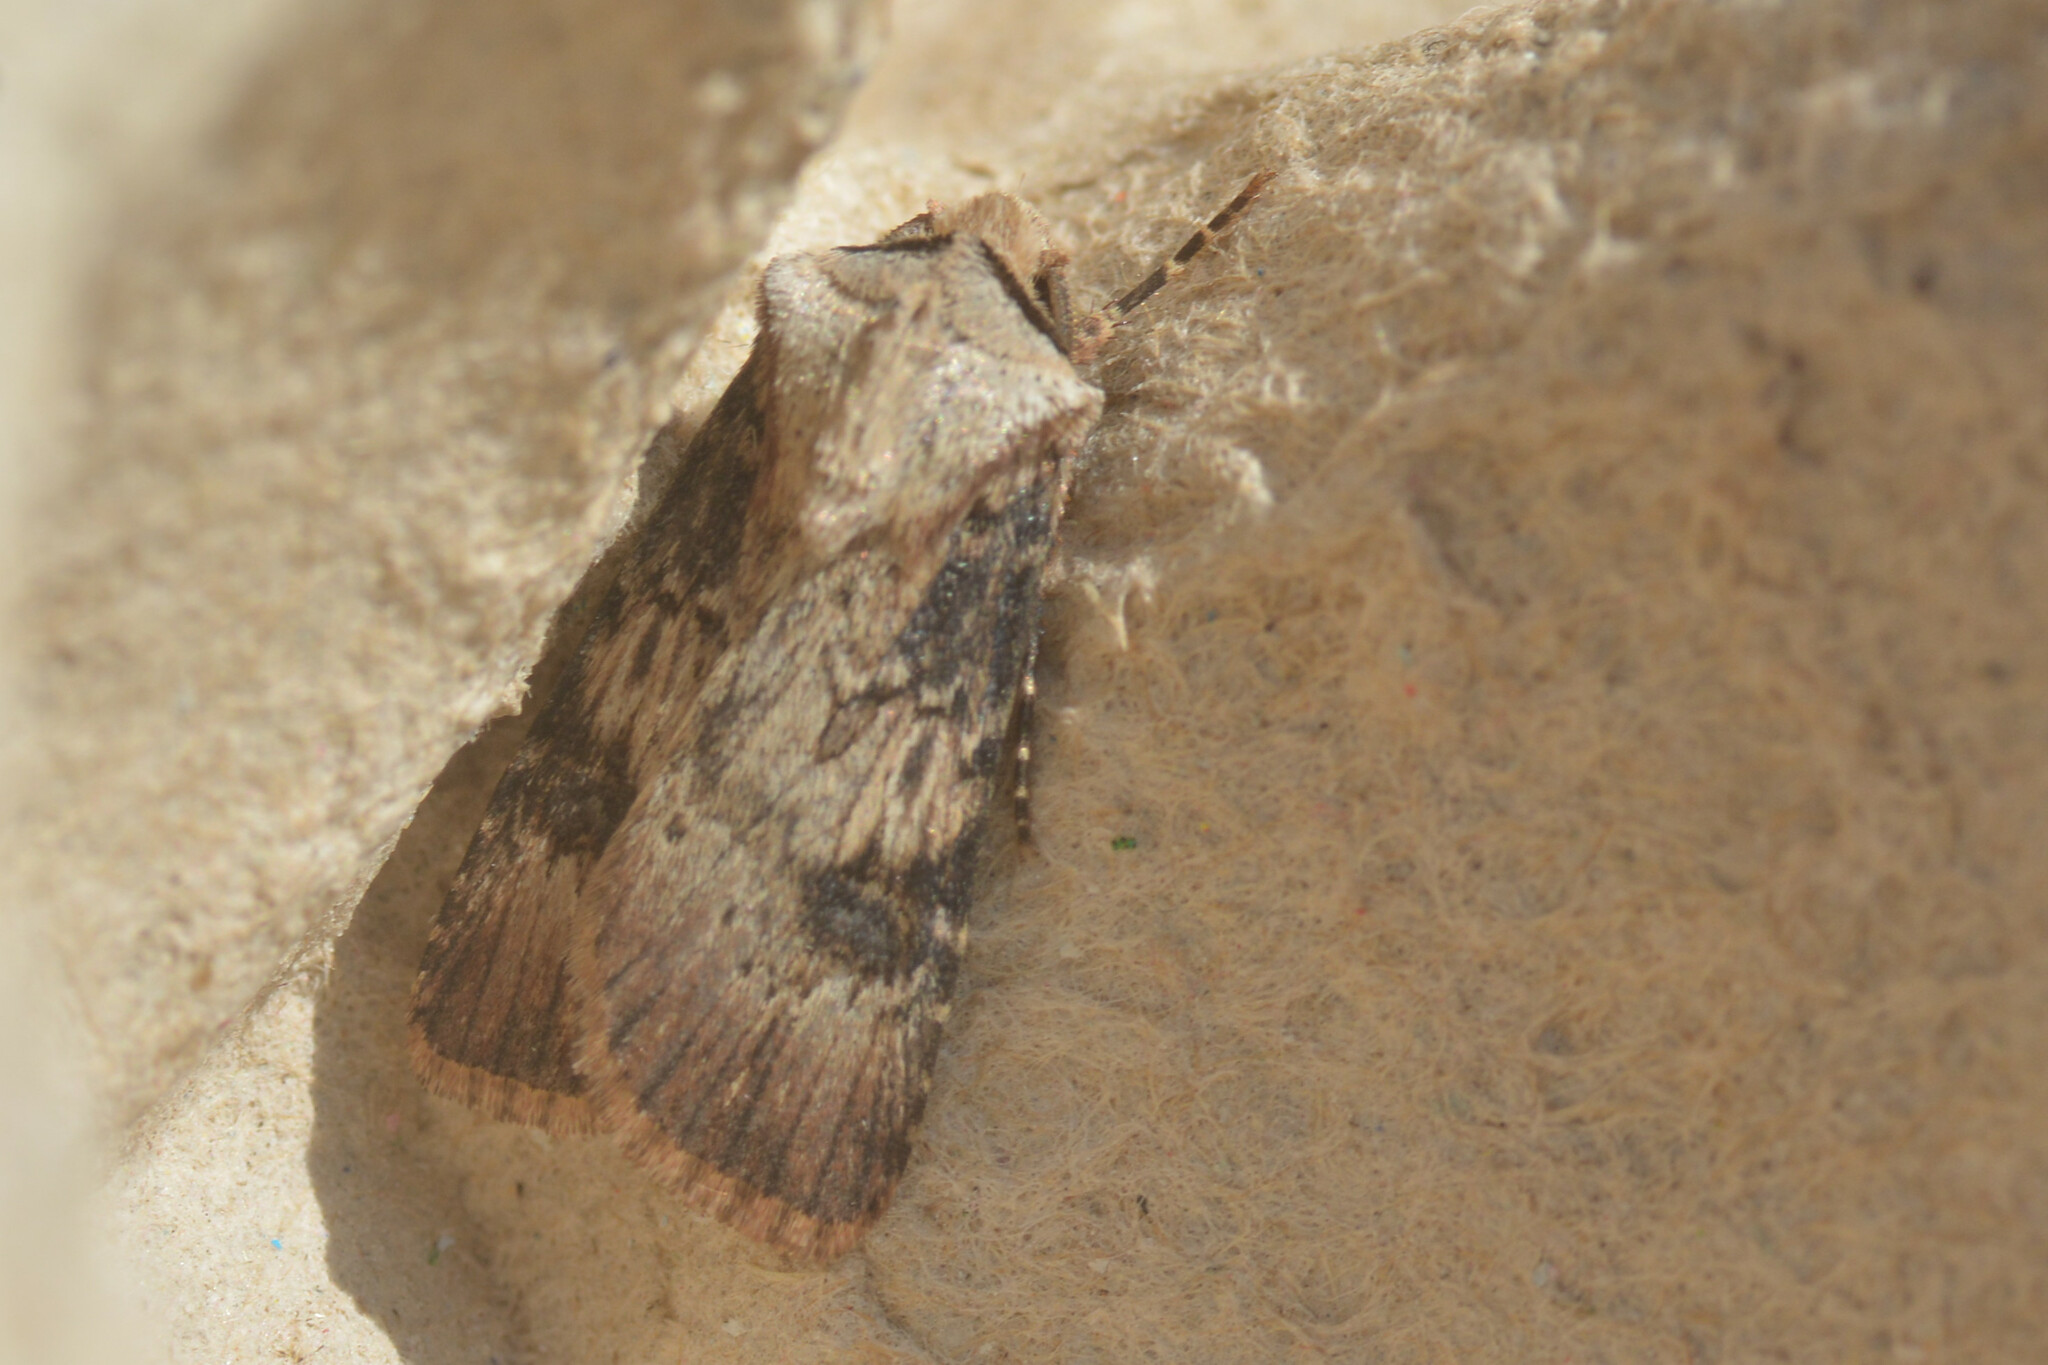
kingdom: Animalia
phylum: Arthropoda
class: Insecta
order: Lepidoptera
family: Noctuidae
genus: Agrotis
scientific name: Agrotis puta
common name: Shuttle-shaped dart
